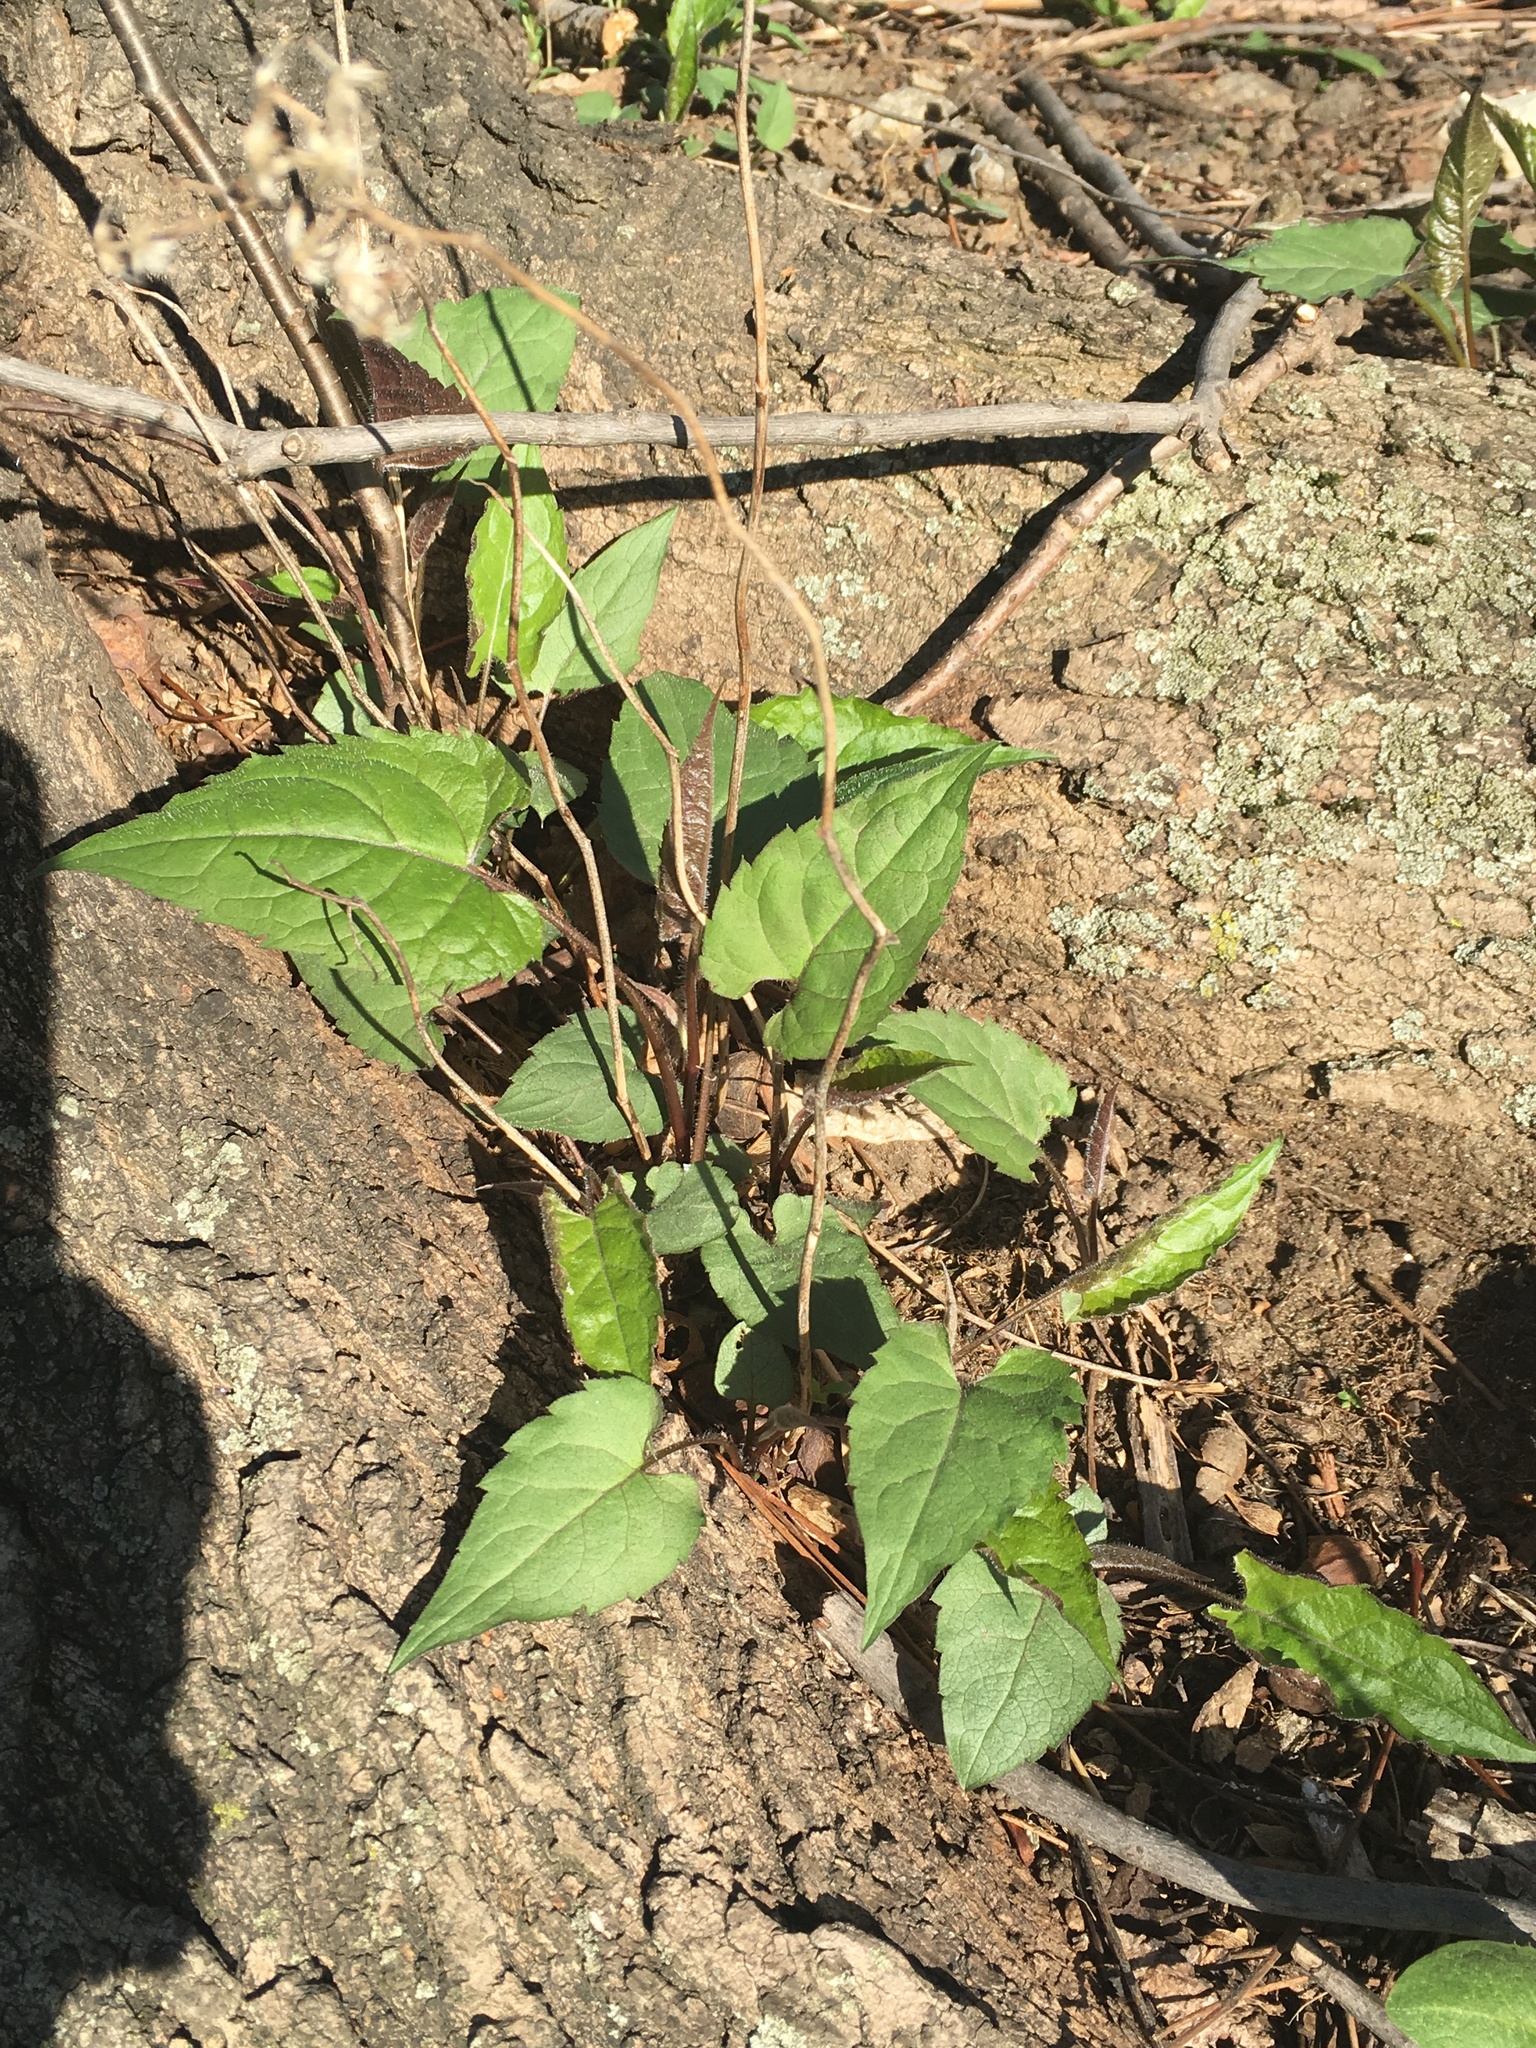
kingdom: Plantae
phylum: Tracheophyta
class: Magnoliopsida
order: Asterales
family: Asteraceae
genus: Eurybia
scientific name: Eurybia divaricata
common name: White wood aster
